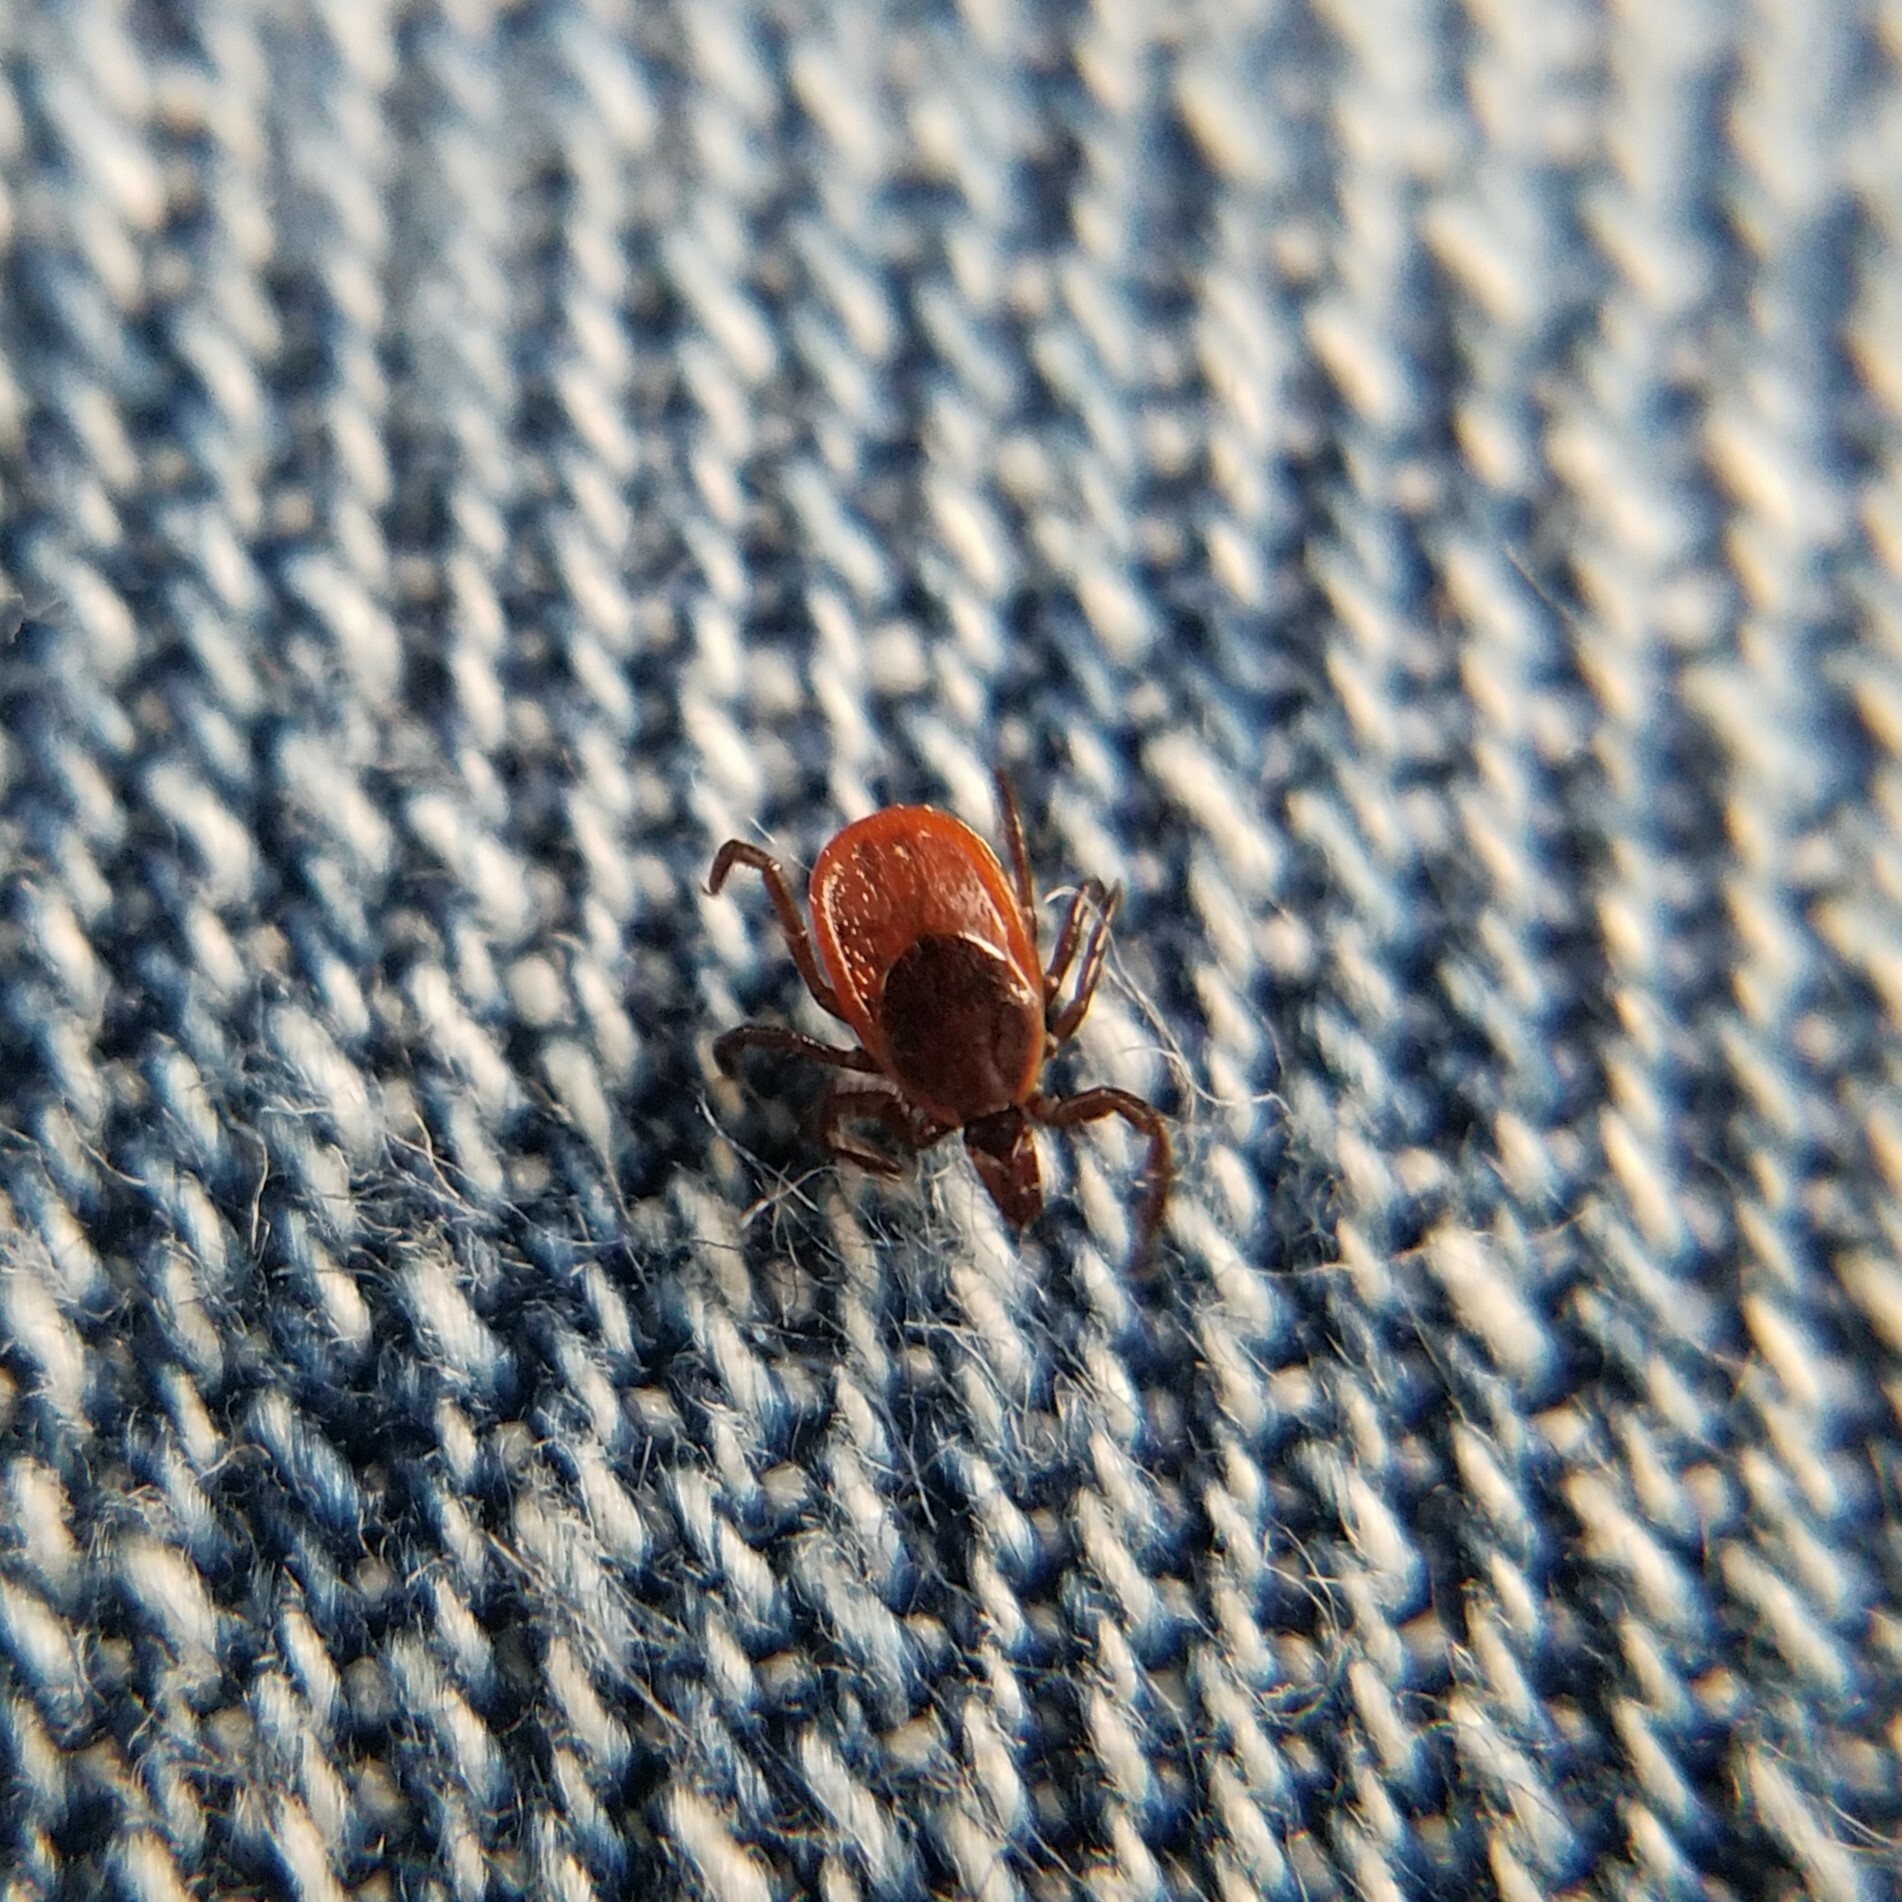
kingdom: Animalia
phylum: Arthropoda
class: Arachnida
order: Ixodida
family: Ixodidae
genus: Ixodes
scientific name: Ixodes scapularis
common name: Black legged tick
